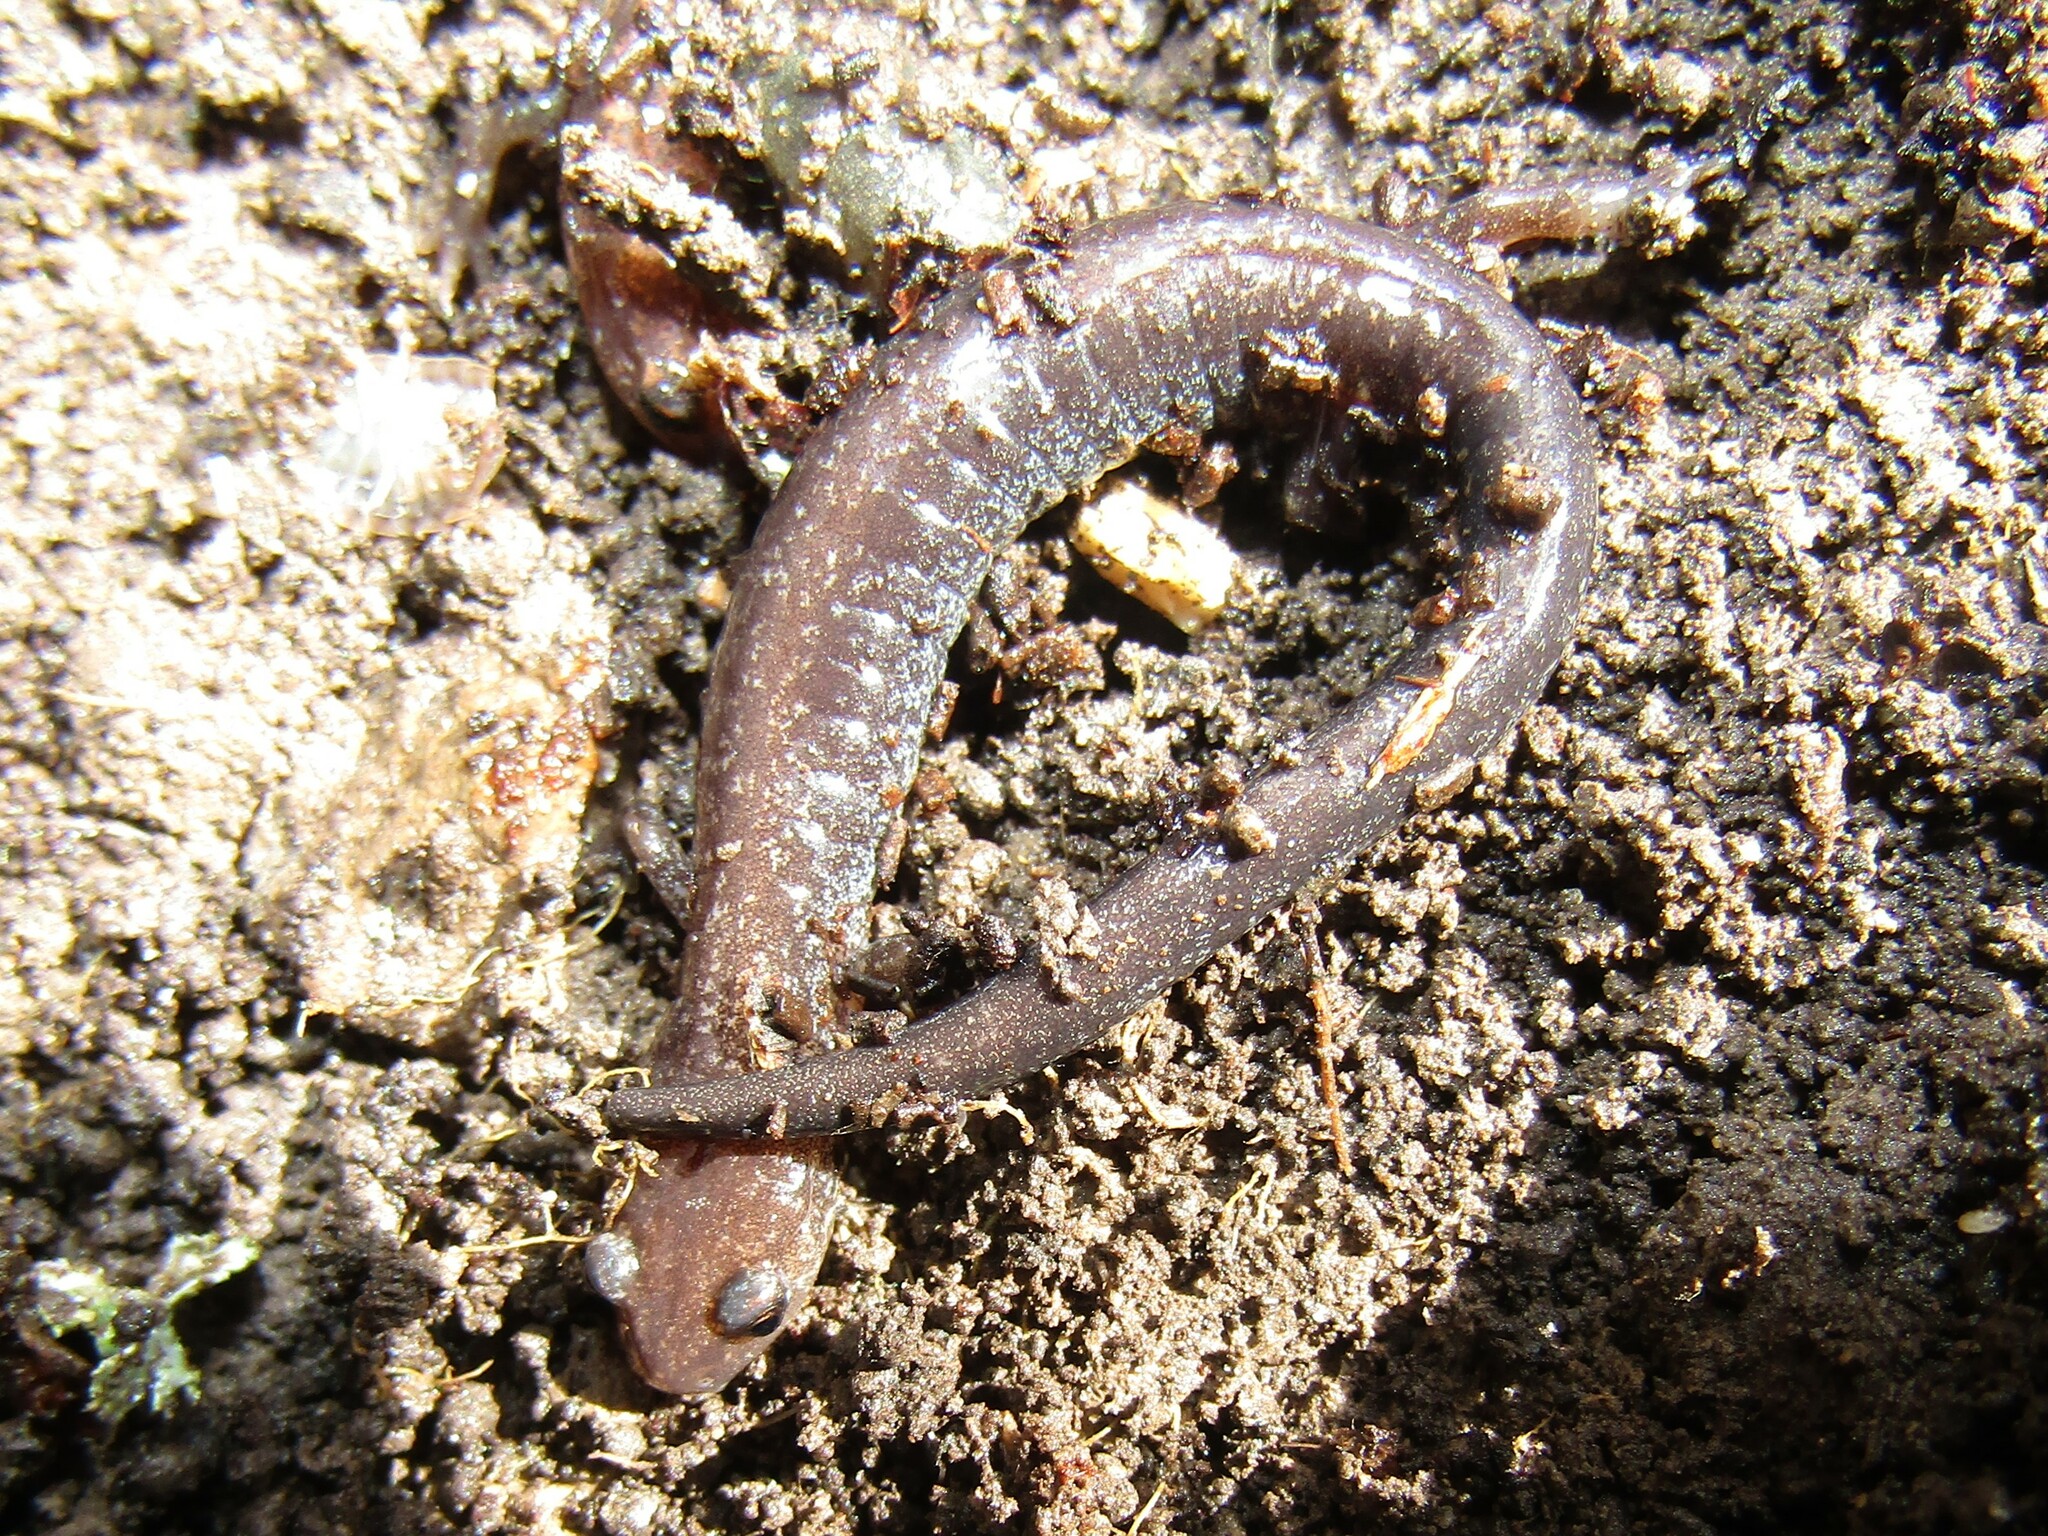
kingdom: Animalia
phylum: Chordata
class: Amphibia
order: Caudata
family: Plethodontidae
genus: Plethodon
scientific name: Plethodon cinereus
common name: Redback salamander
